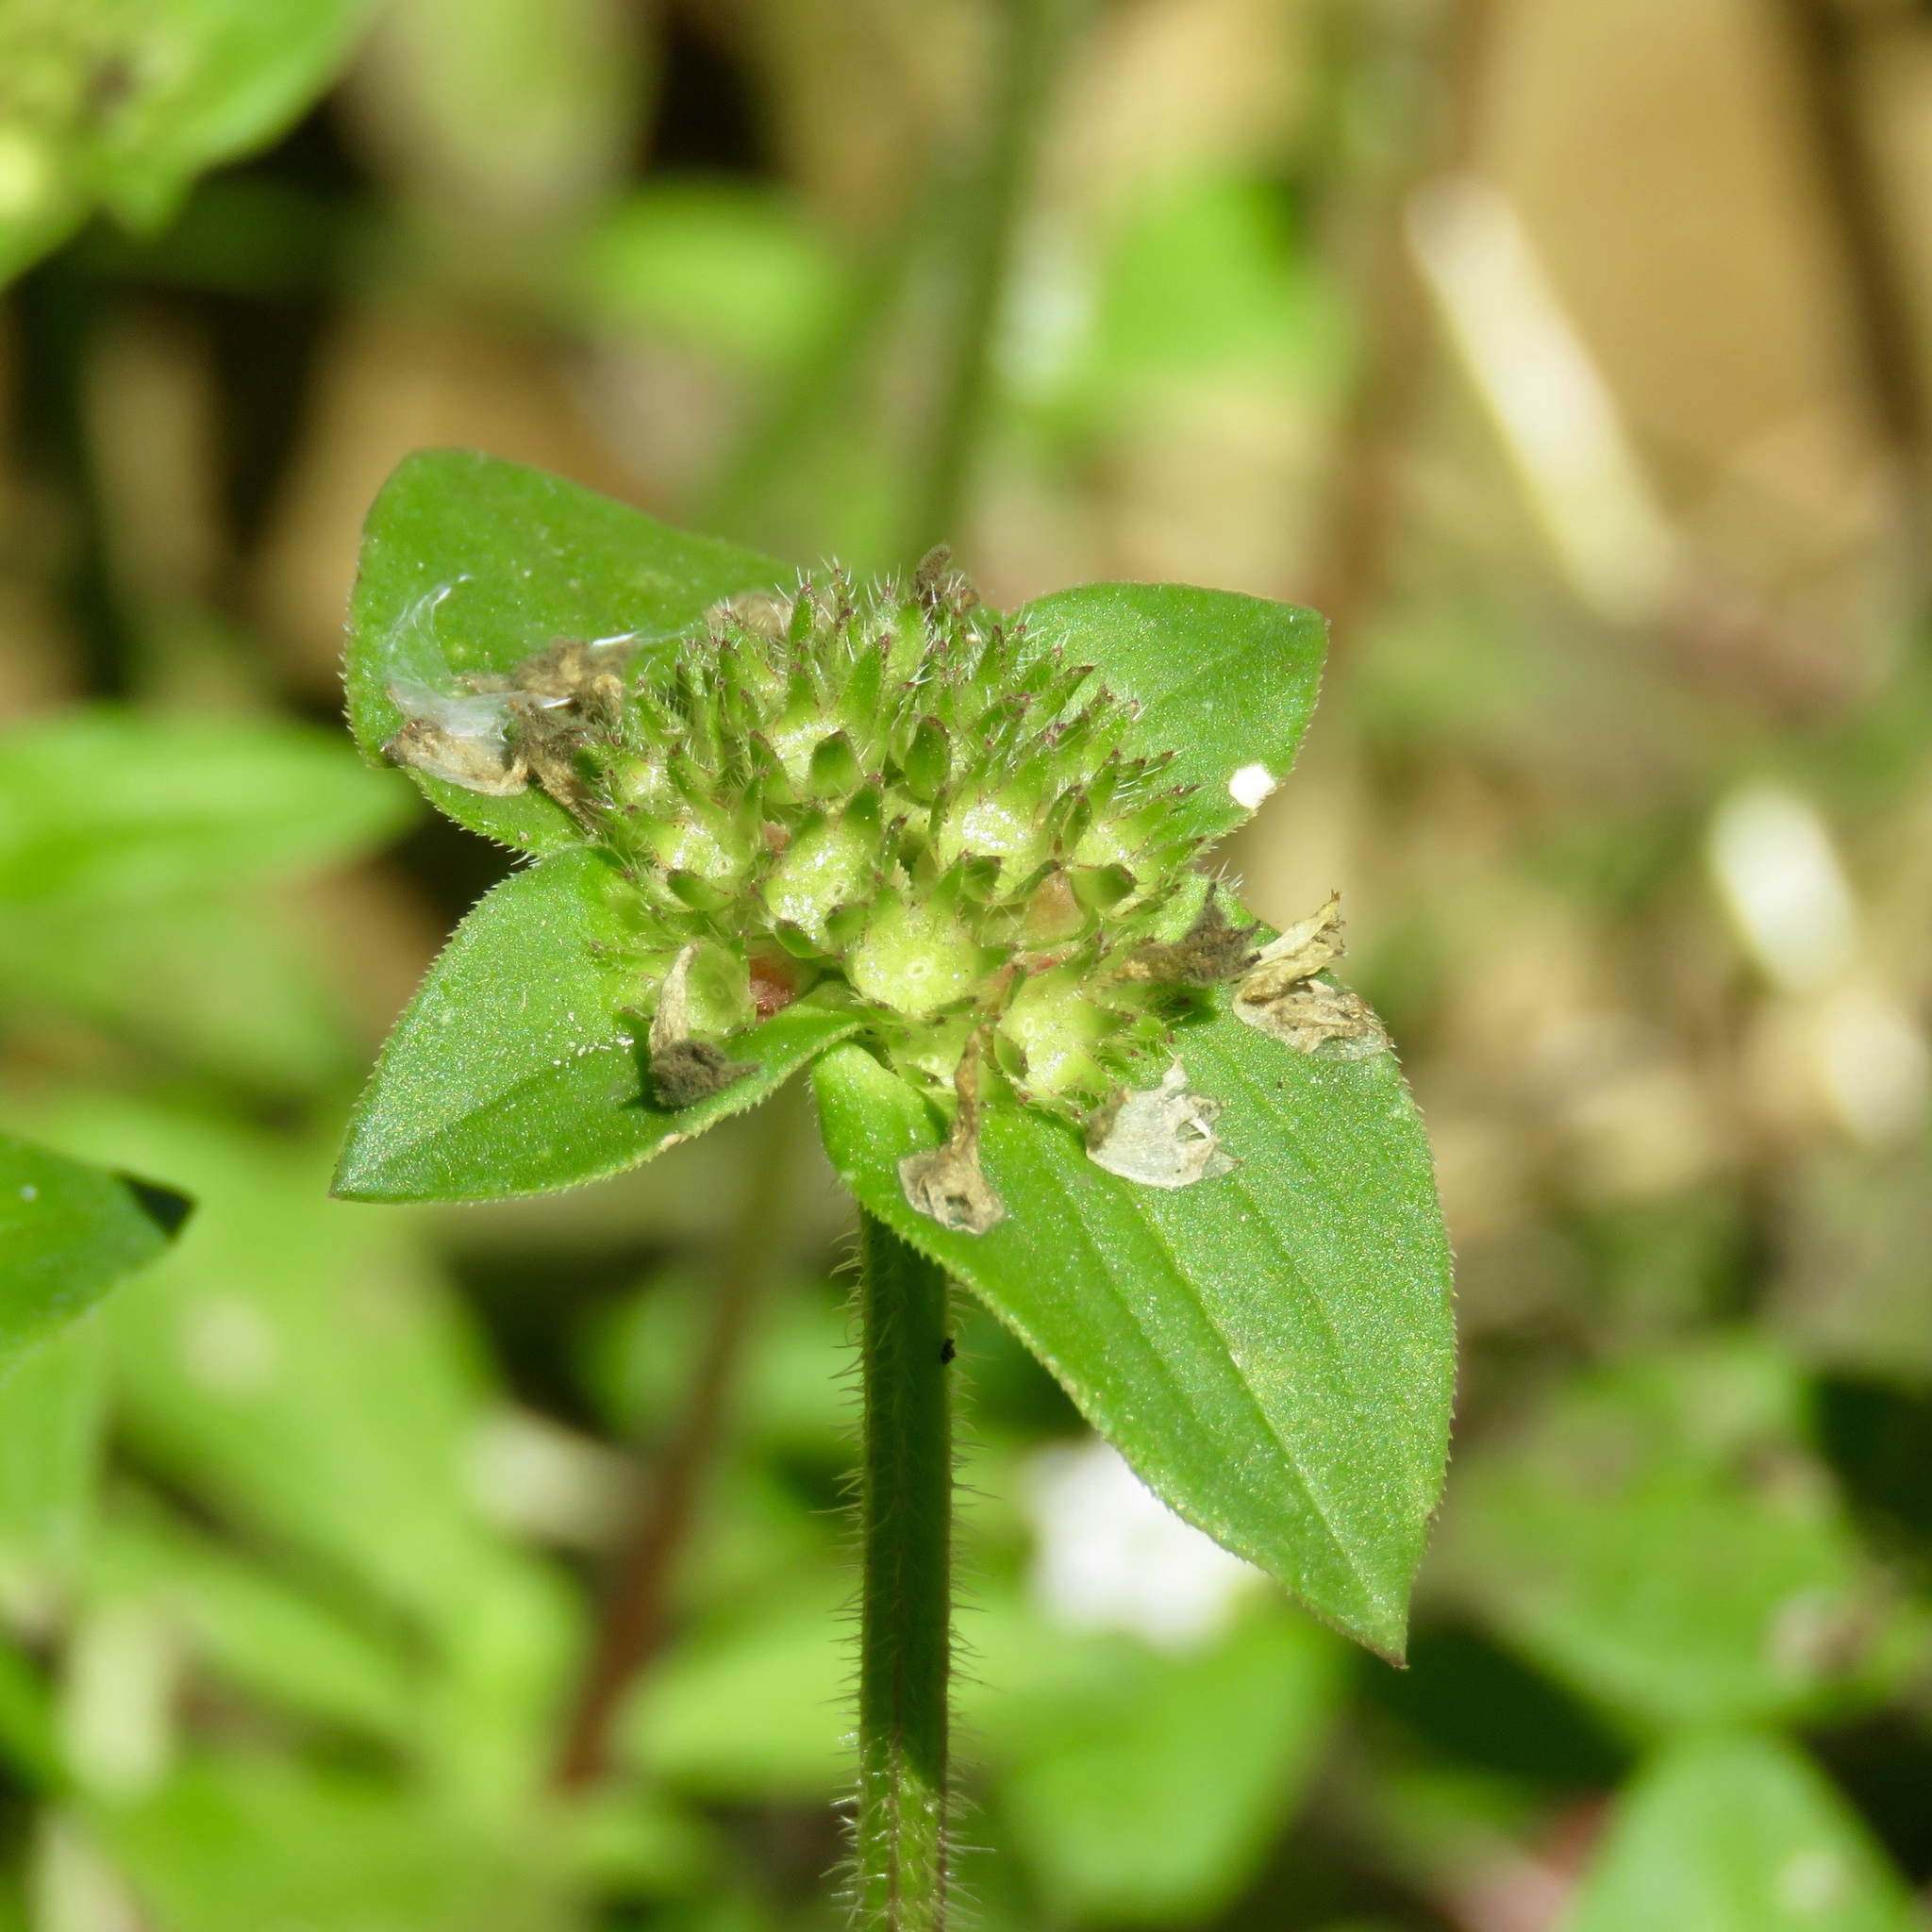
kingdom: Plantae
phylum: Tracheophyta
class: Magnoliopsida
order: Gentianales
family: Rubiaceae
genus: Richardia
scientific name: Richardia scabra
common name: Rough mexican clover
